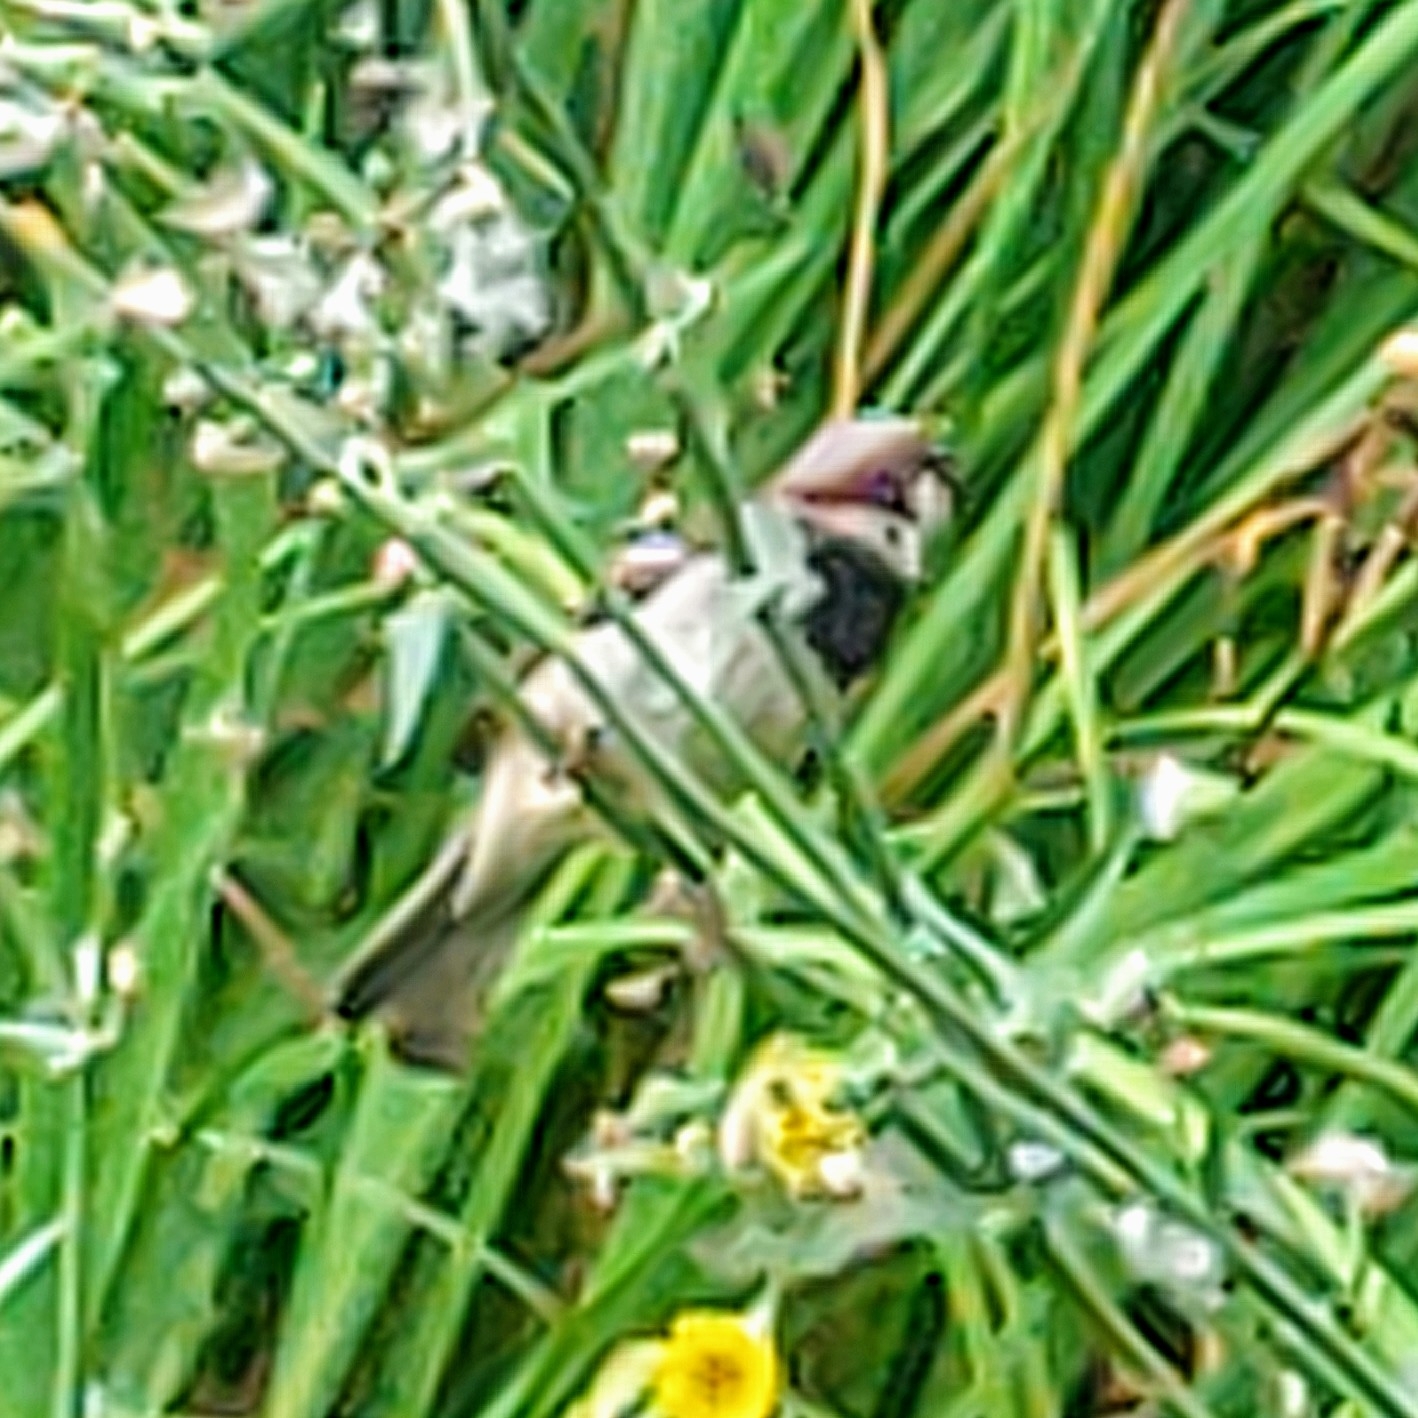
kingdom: Animalia
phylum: Chordata
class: Aves
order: Passeriformes
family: Passeridae
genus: Passer
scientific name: Passer domesticus
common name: House sparrow
